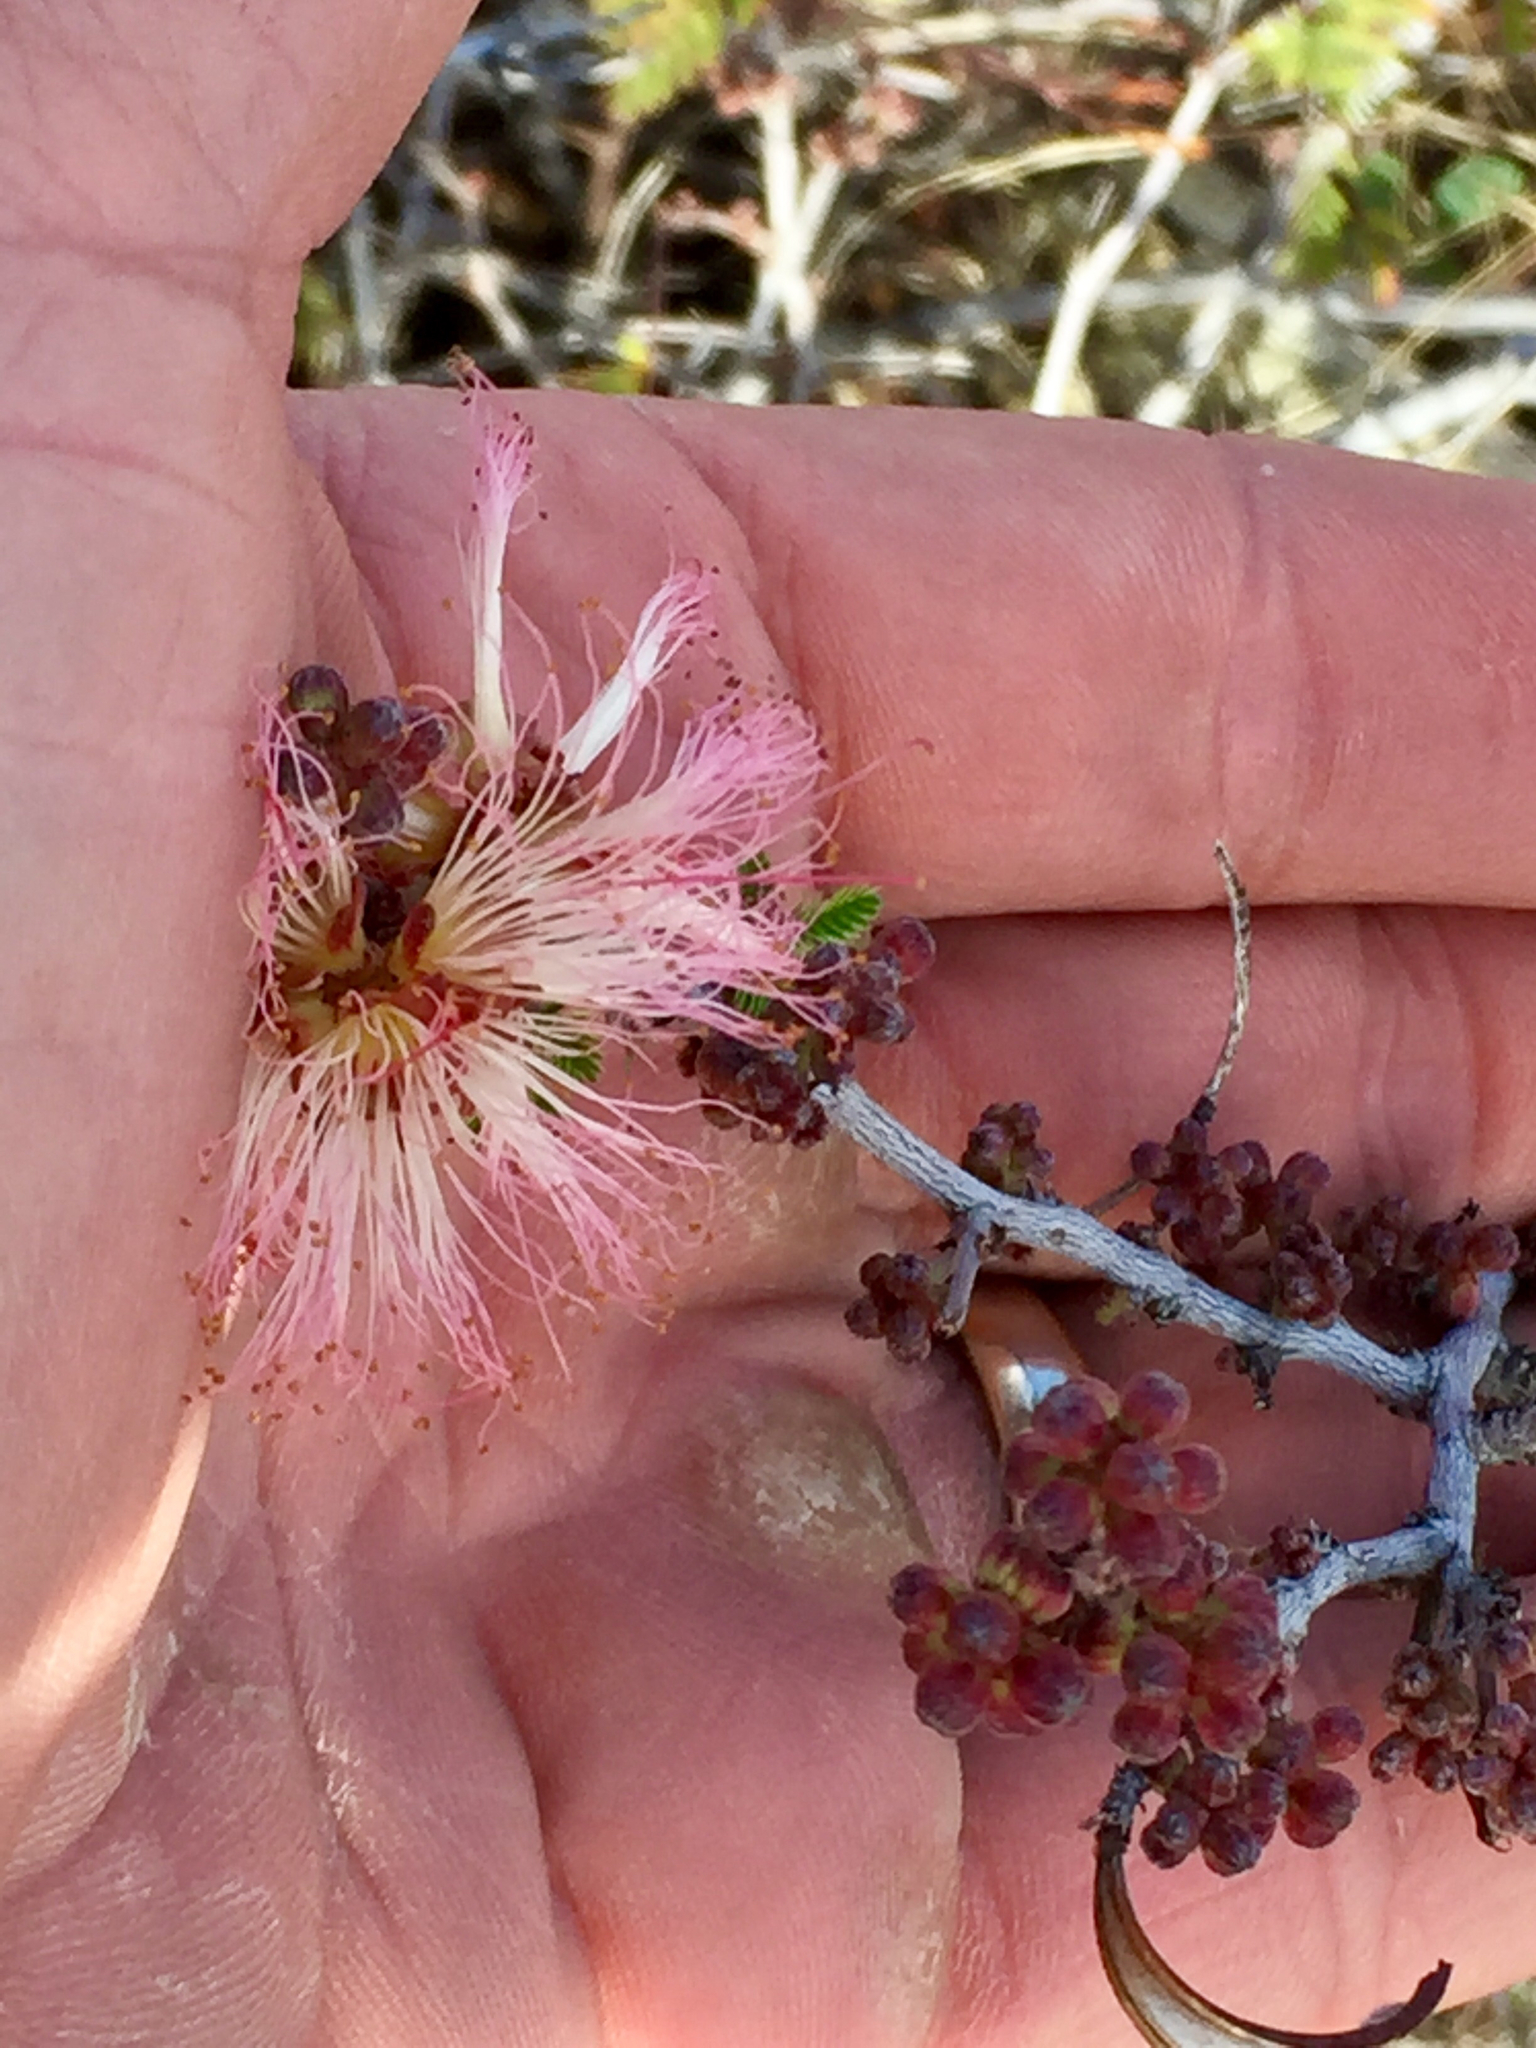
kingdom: Plantae
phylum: Tracheophyta
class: Magnoliopsida
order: Fabales
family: Fabaceae
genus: Calliandra
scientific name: Calliandra eriophylla
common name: Fairy-duster
